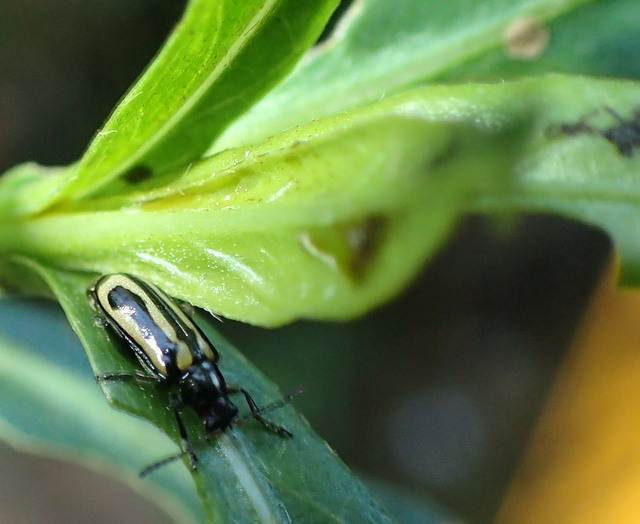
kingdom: Animalia
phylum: Arthropoda
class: Insecta
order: Coleoptera
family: Chrysomelidae
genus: Agasicles
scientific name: Agasicles hygrophila
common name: Alligatorweed flea beetle
